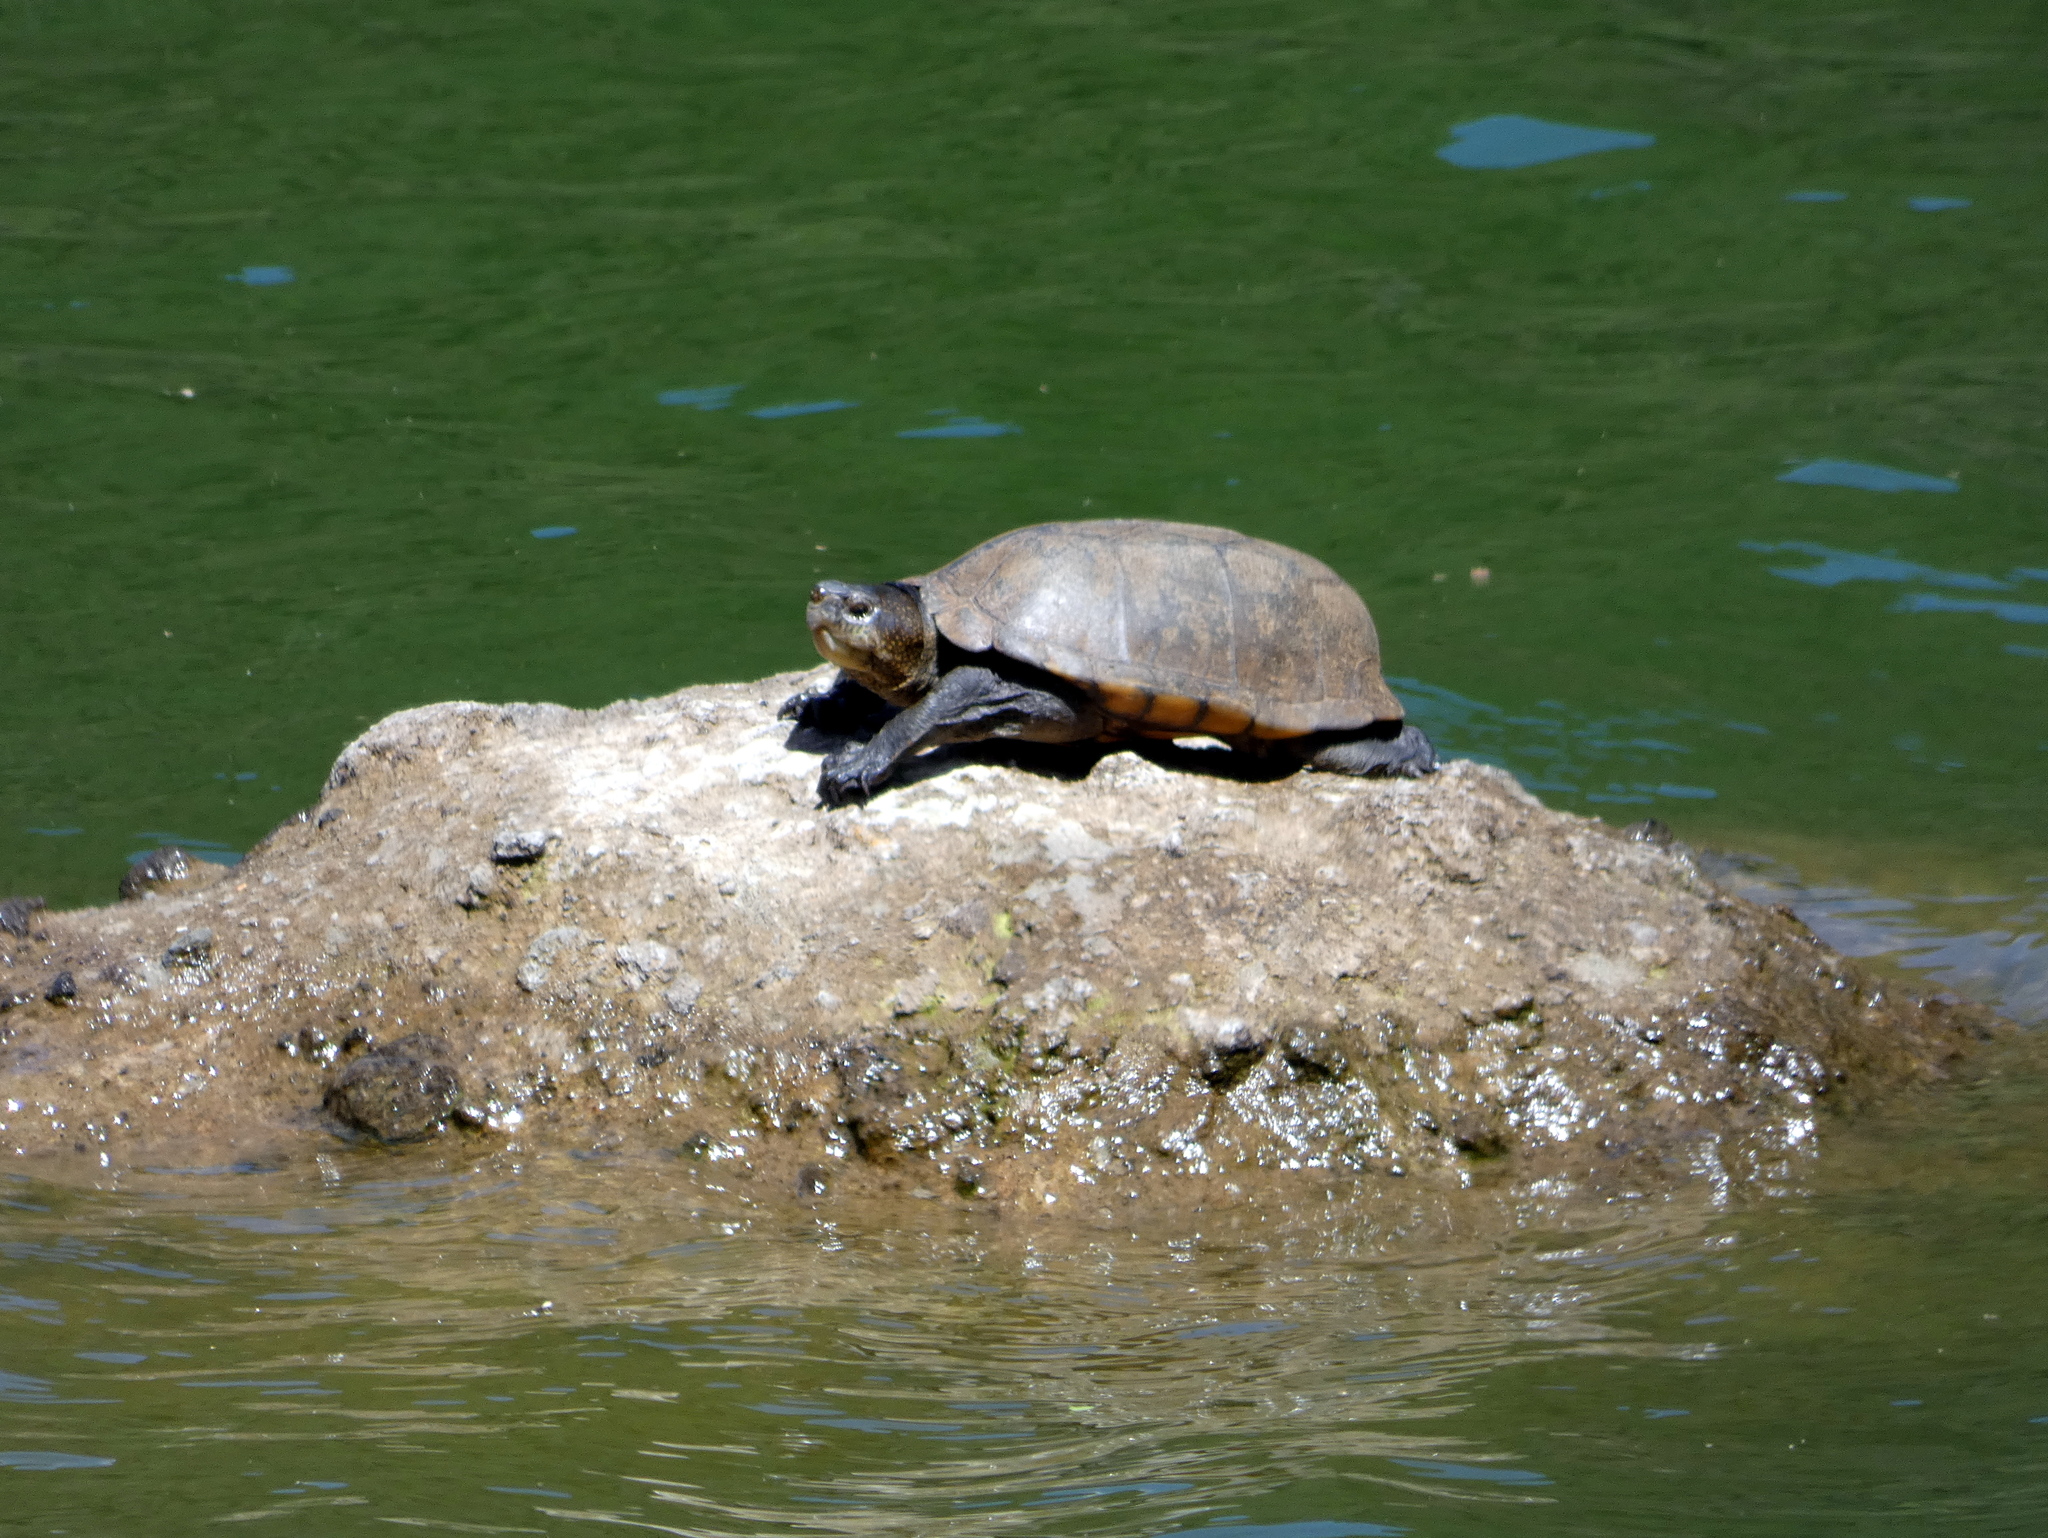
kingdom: Animalia
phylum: Chordata
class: Testudines
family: Kinosternidae
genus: Kinosternon
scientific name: Kinosternon scorpioides
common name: Scorpion mud turtle
